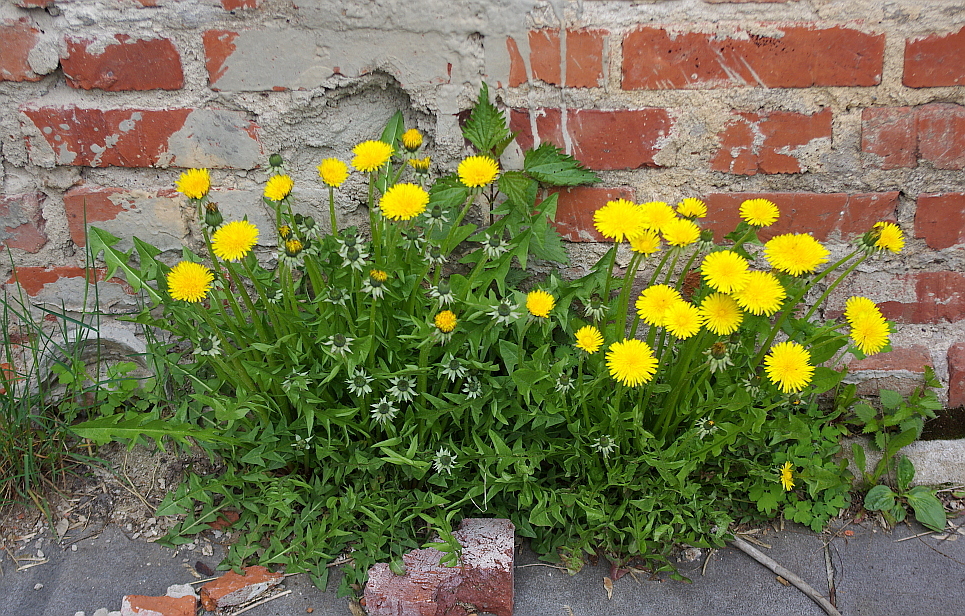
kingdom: Plantae
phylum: Tracheophyta
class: Magnoliopsida
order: Asterales
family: Asteraceae
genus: Taraxacum
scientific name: Taraxacum officinale
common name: Common dandelion
